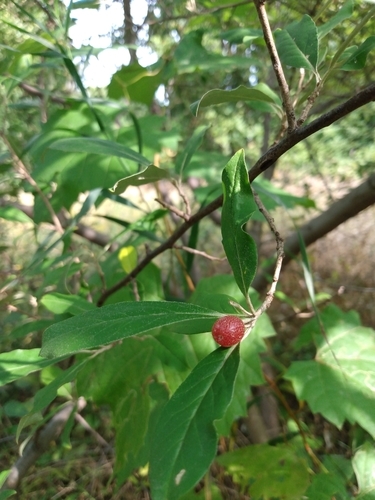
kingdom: Plantae
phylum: Tracheophyta
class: Magnoliopsida
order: Rosales
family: Elaeagnaceae
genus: Elaeagnus
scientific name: Elaeagnus umbellata
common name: Autumn olive
